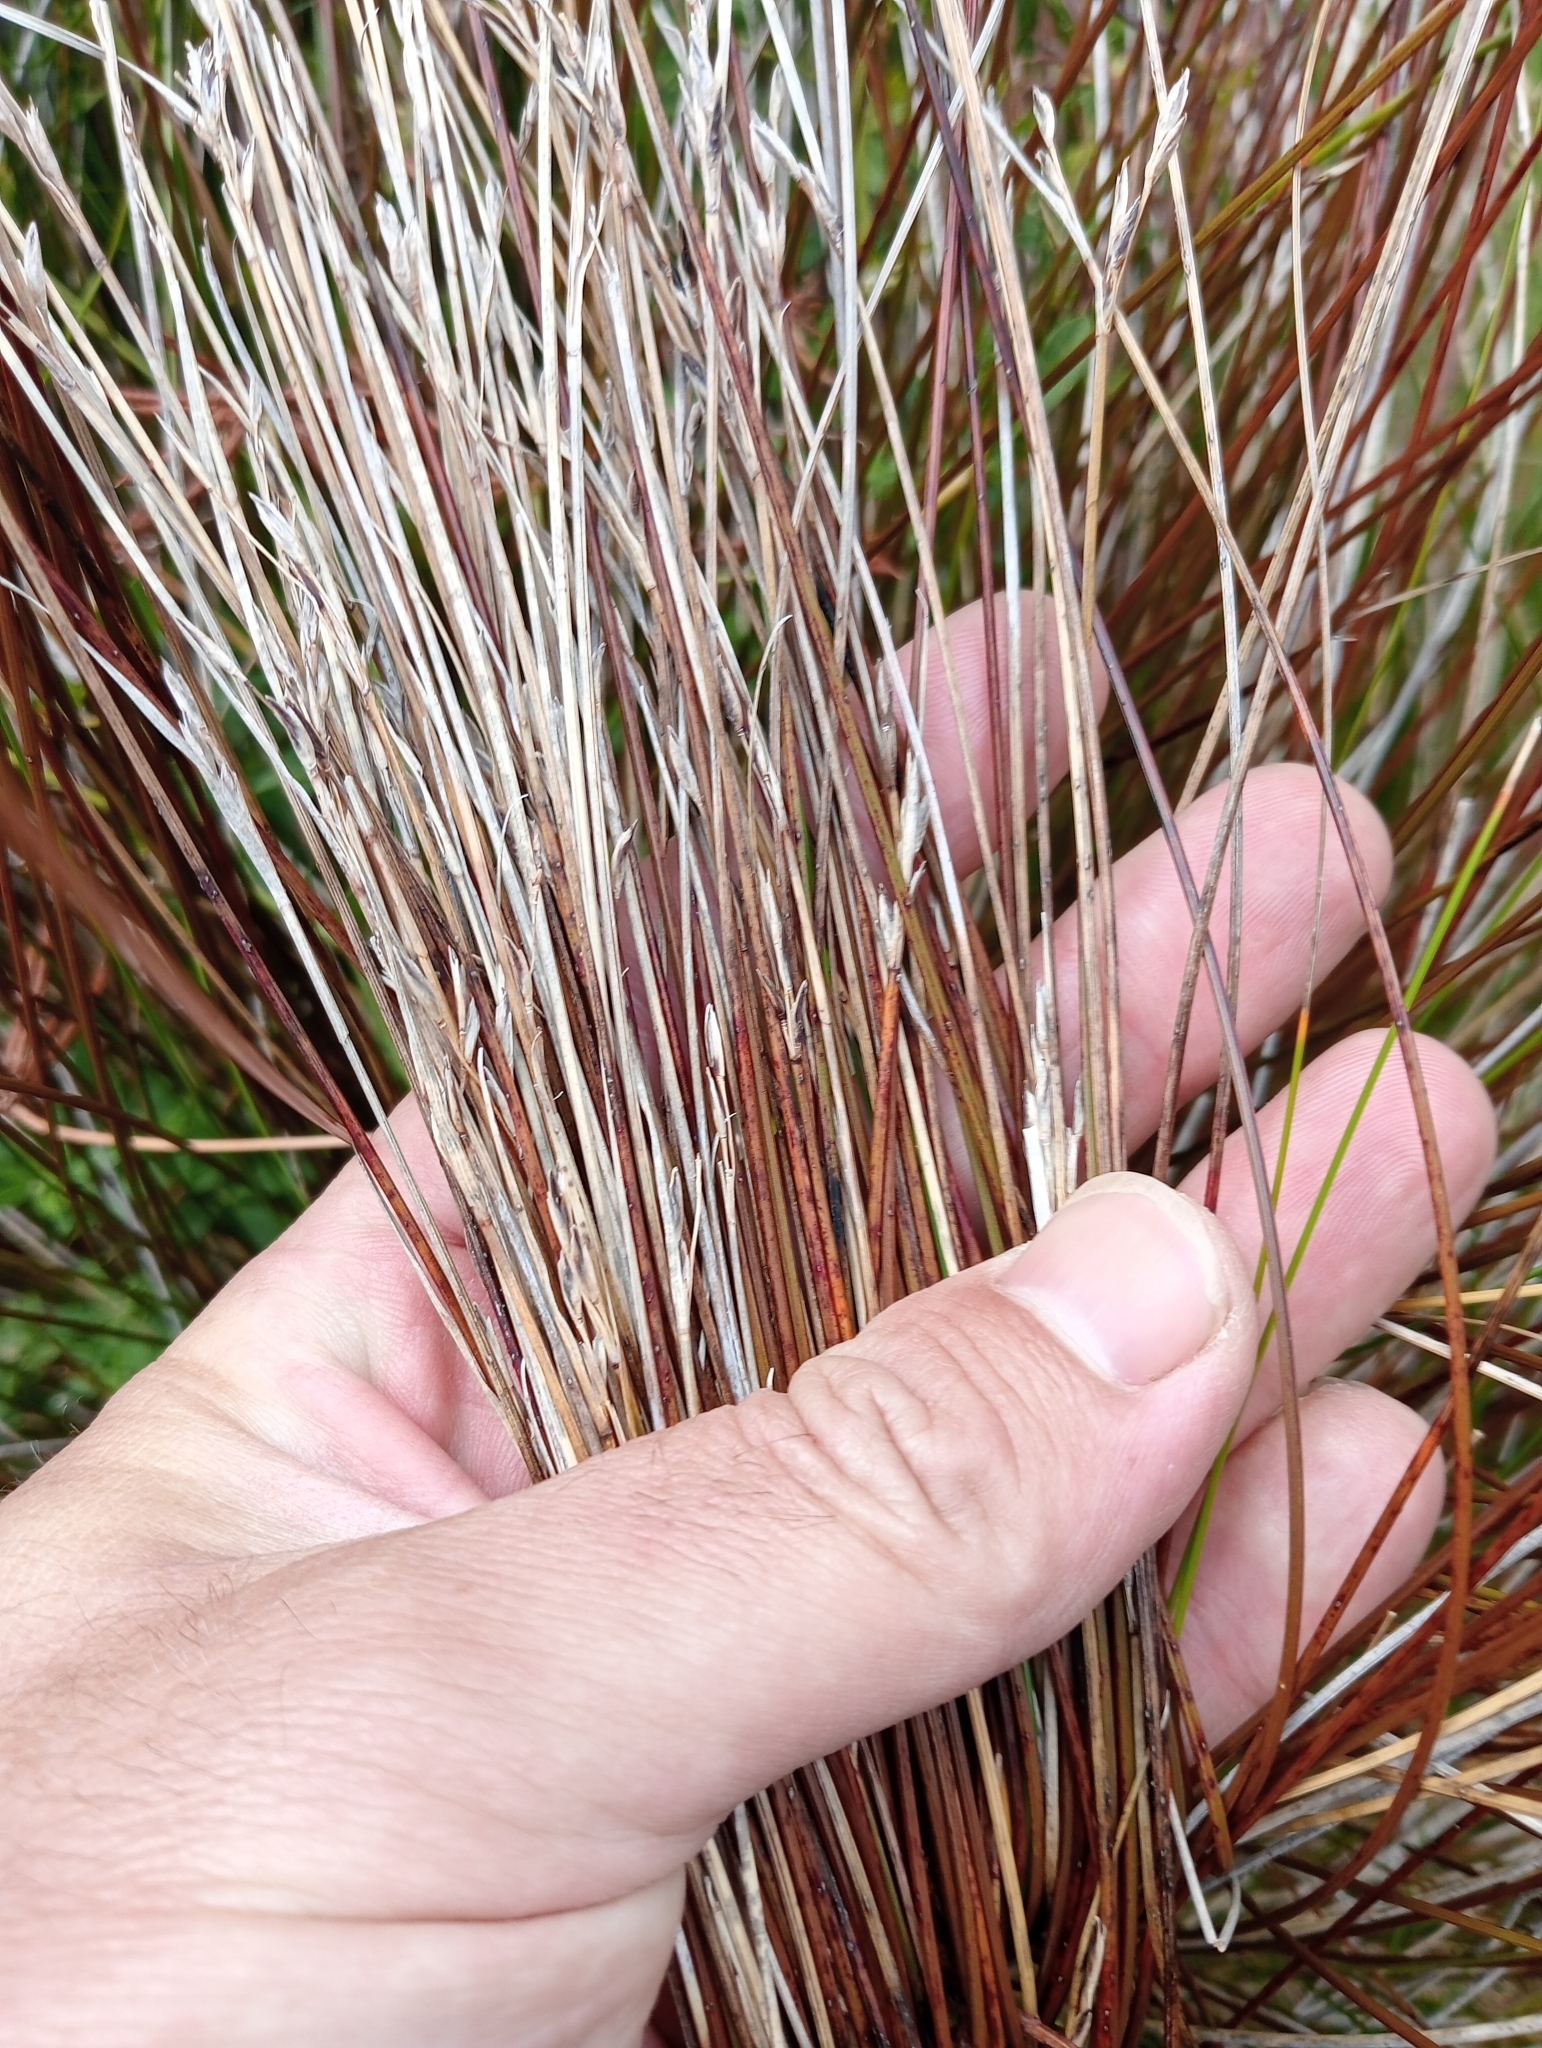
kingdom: Plantae
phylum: Tracheophyta
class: Liliopsida
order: Poales
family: Cyperaceae
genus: Schoenus
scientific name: Schoenus pauciflorus
